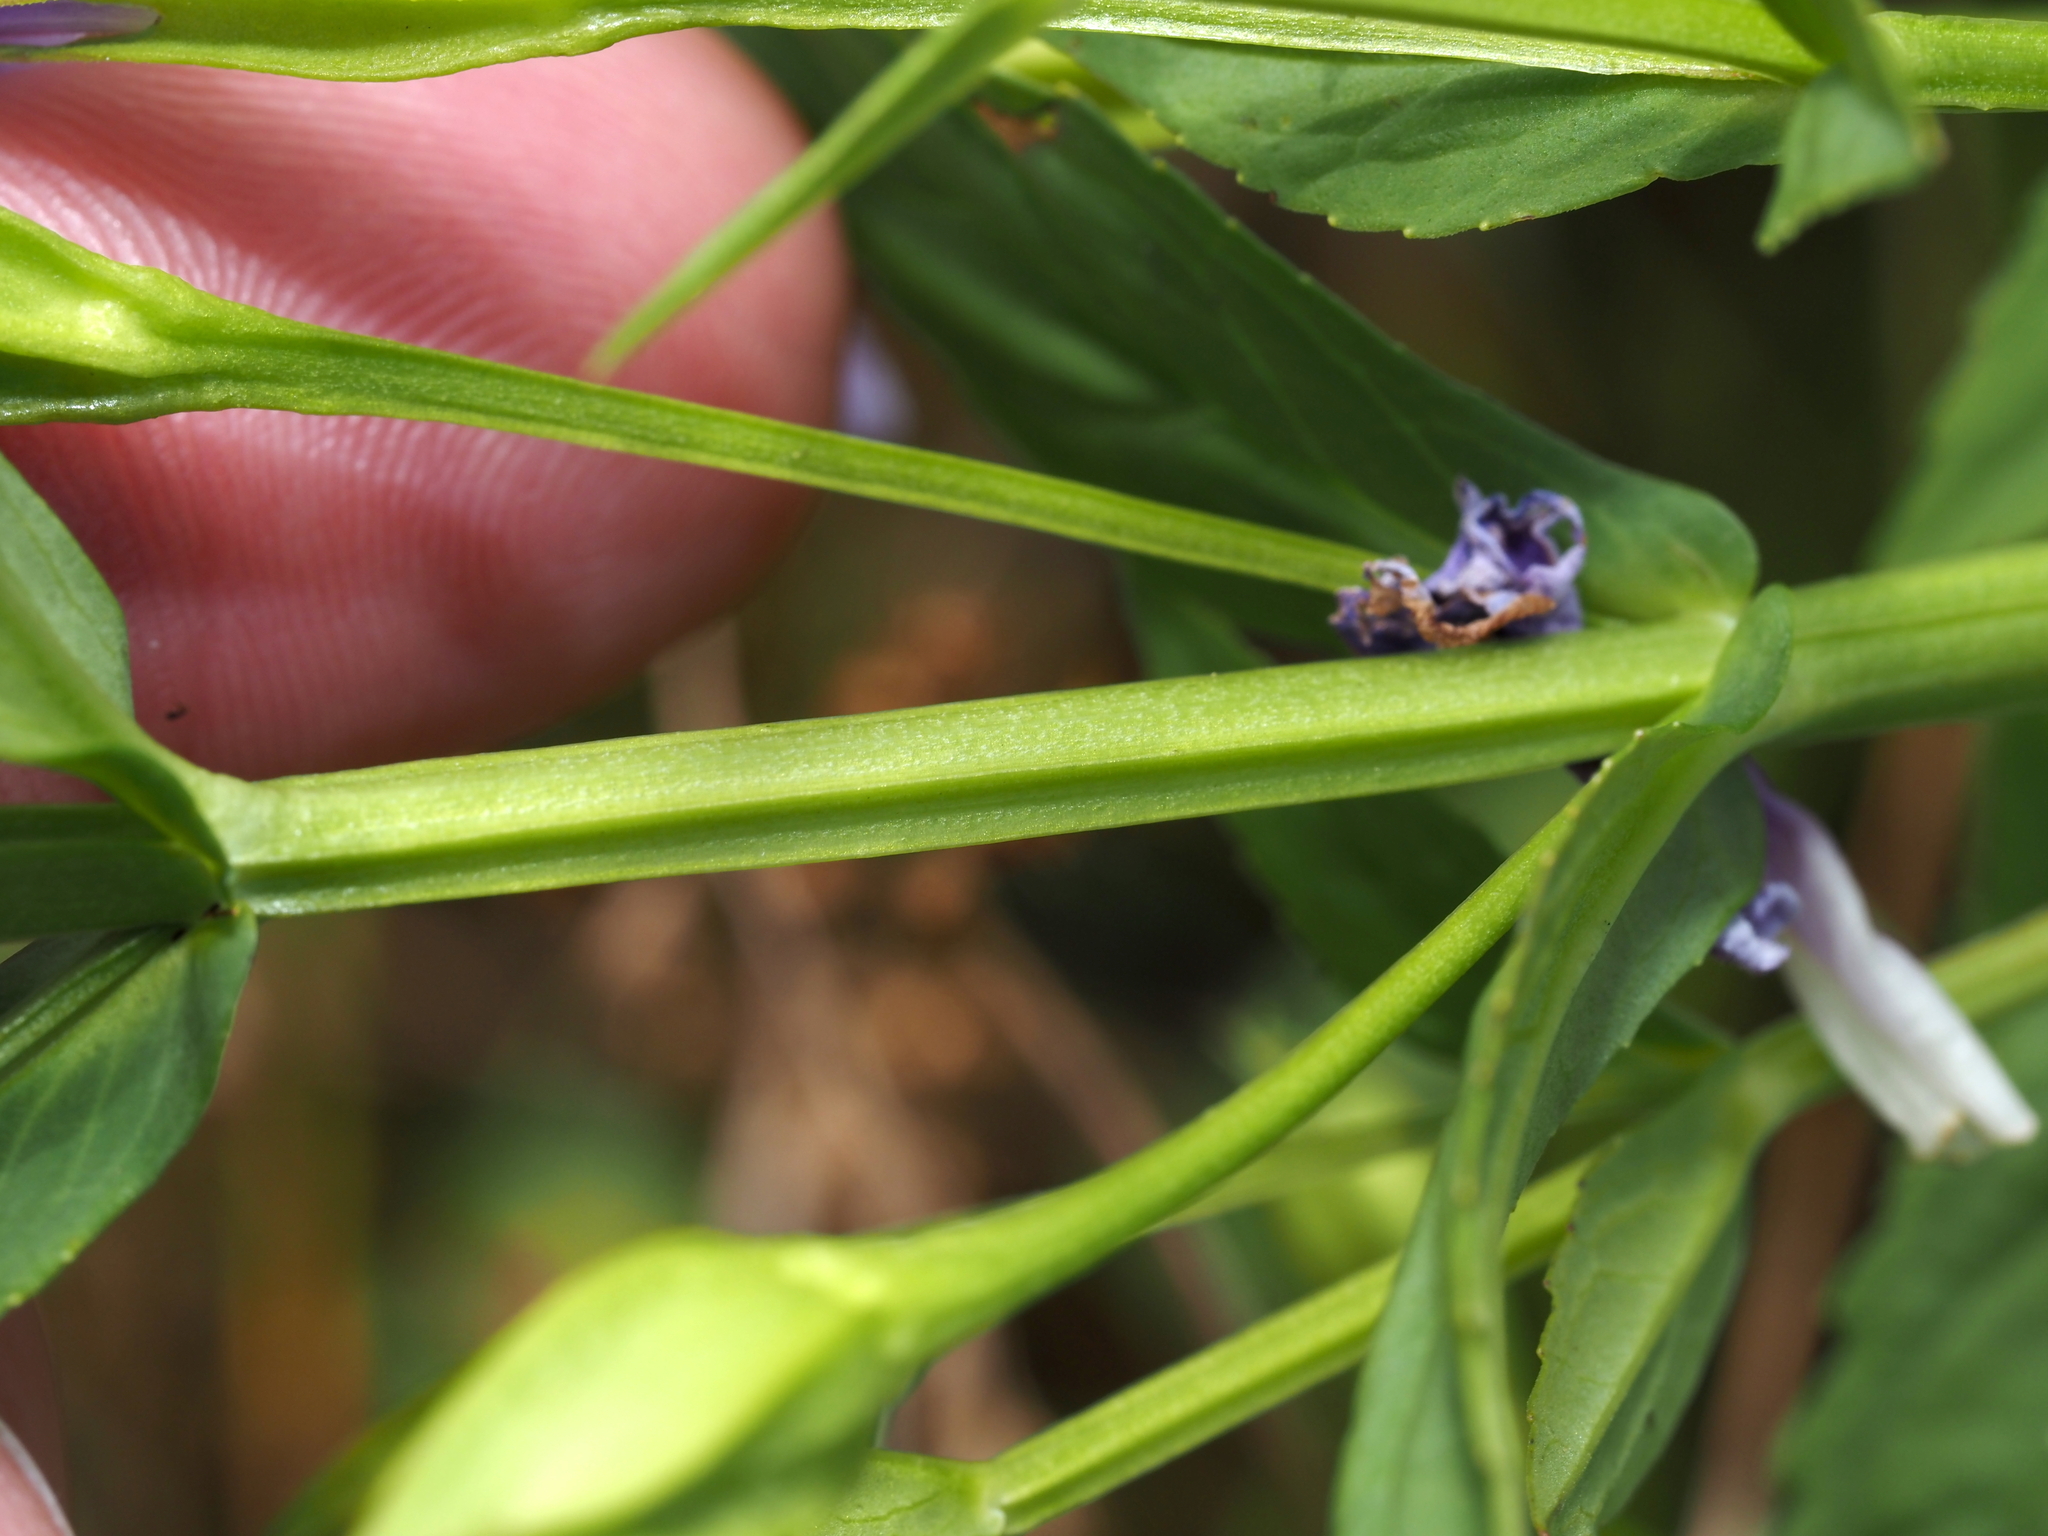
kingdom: Plantae
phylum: Tracheophyta
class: Magnoliopsida
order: Lamiales
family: Phrymaceae
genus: Mimulus
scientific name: Mimulus ringens
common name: Allegheny monkeyflower
